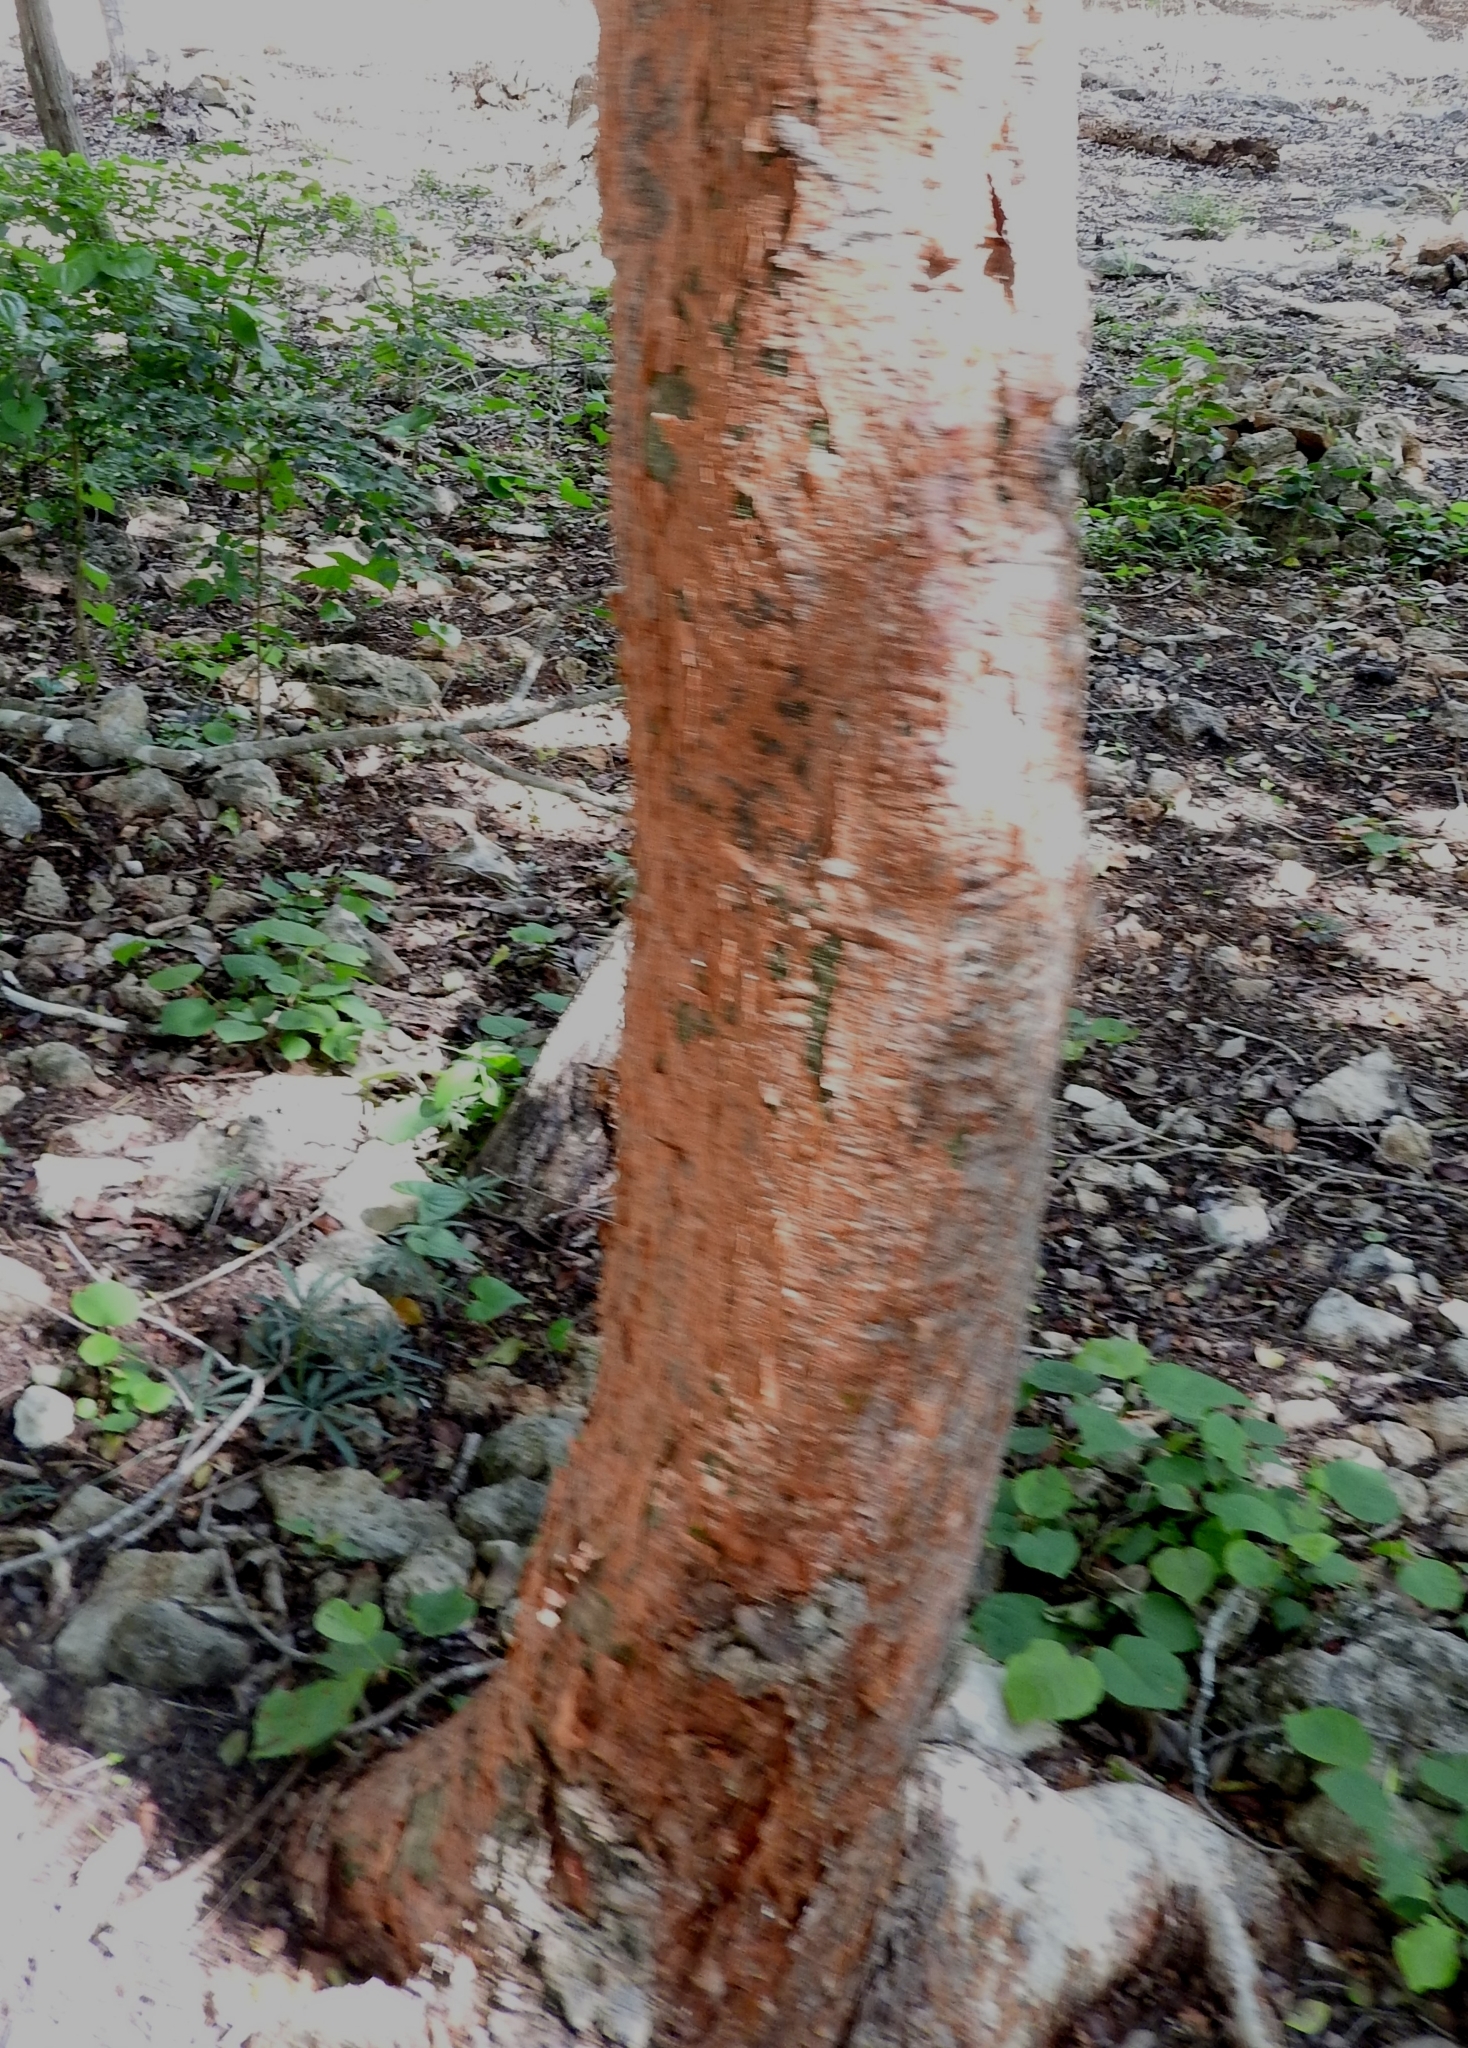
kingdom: Plantae
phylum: Tracheophyta
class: Magnoliopsida
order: Sapindales
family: Burseraceae
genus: Bursera
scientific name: Bursera simaruba
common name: Turpentine tree
